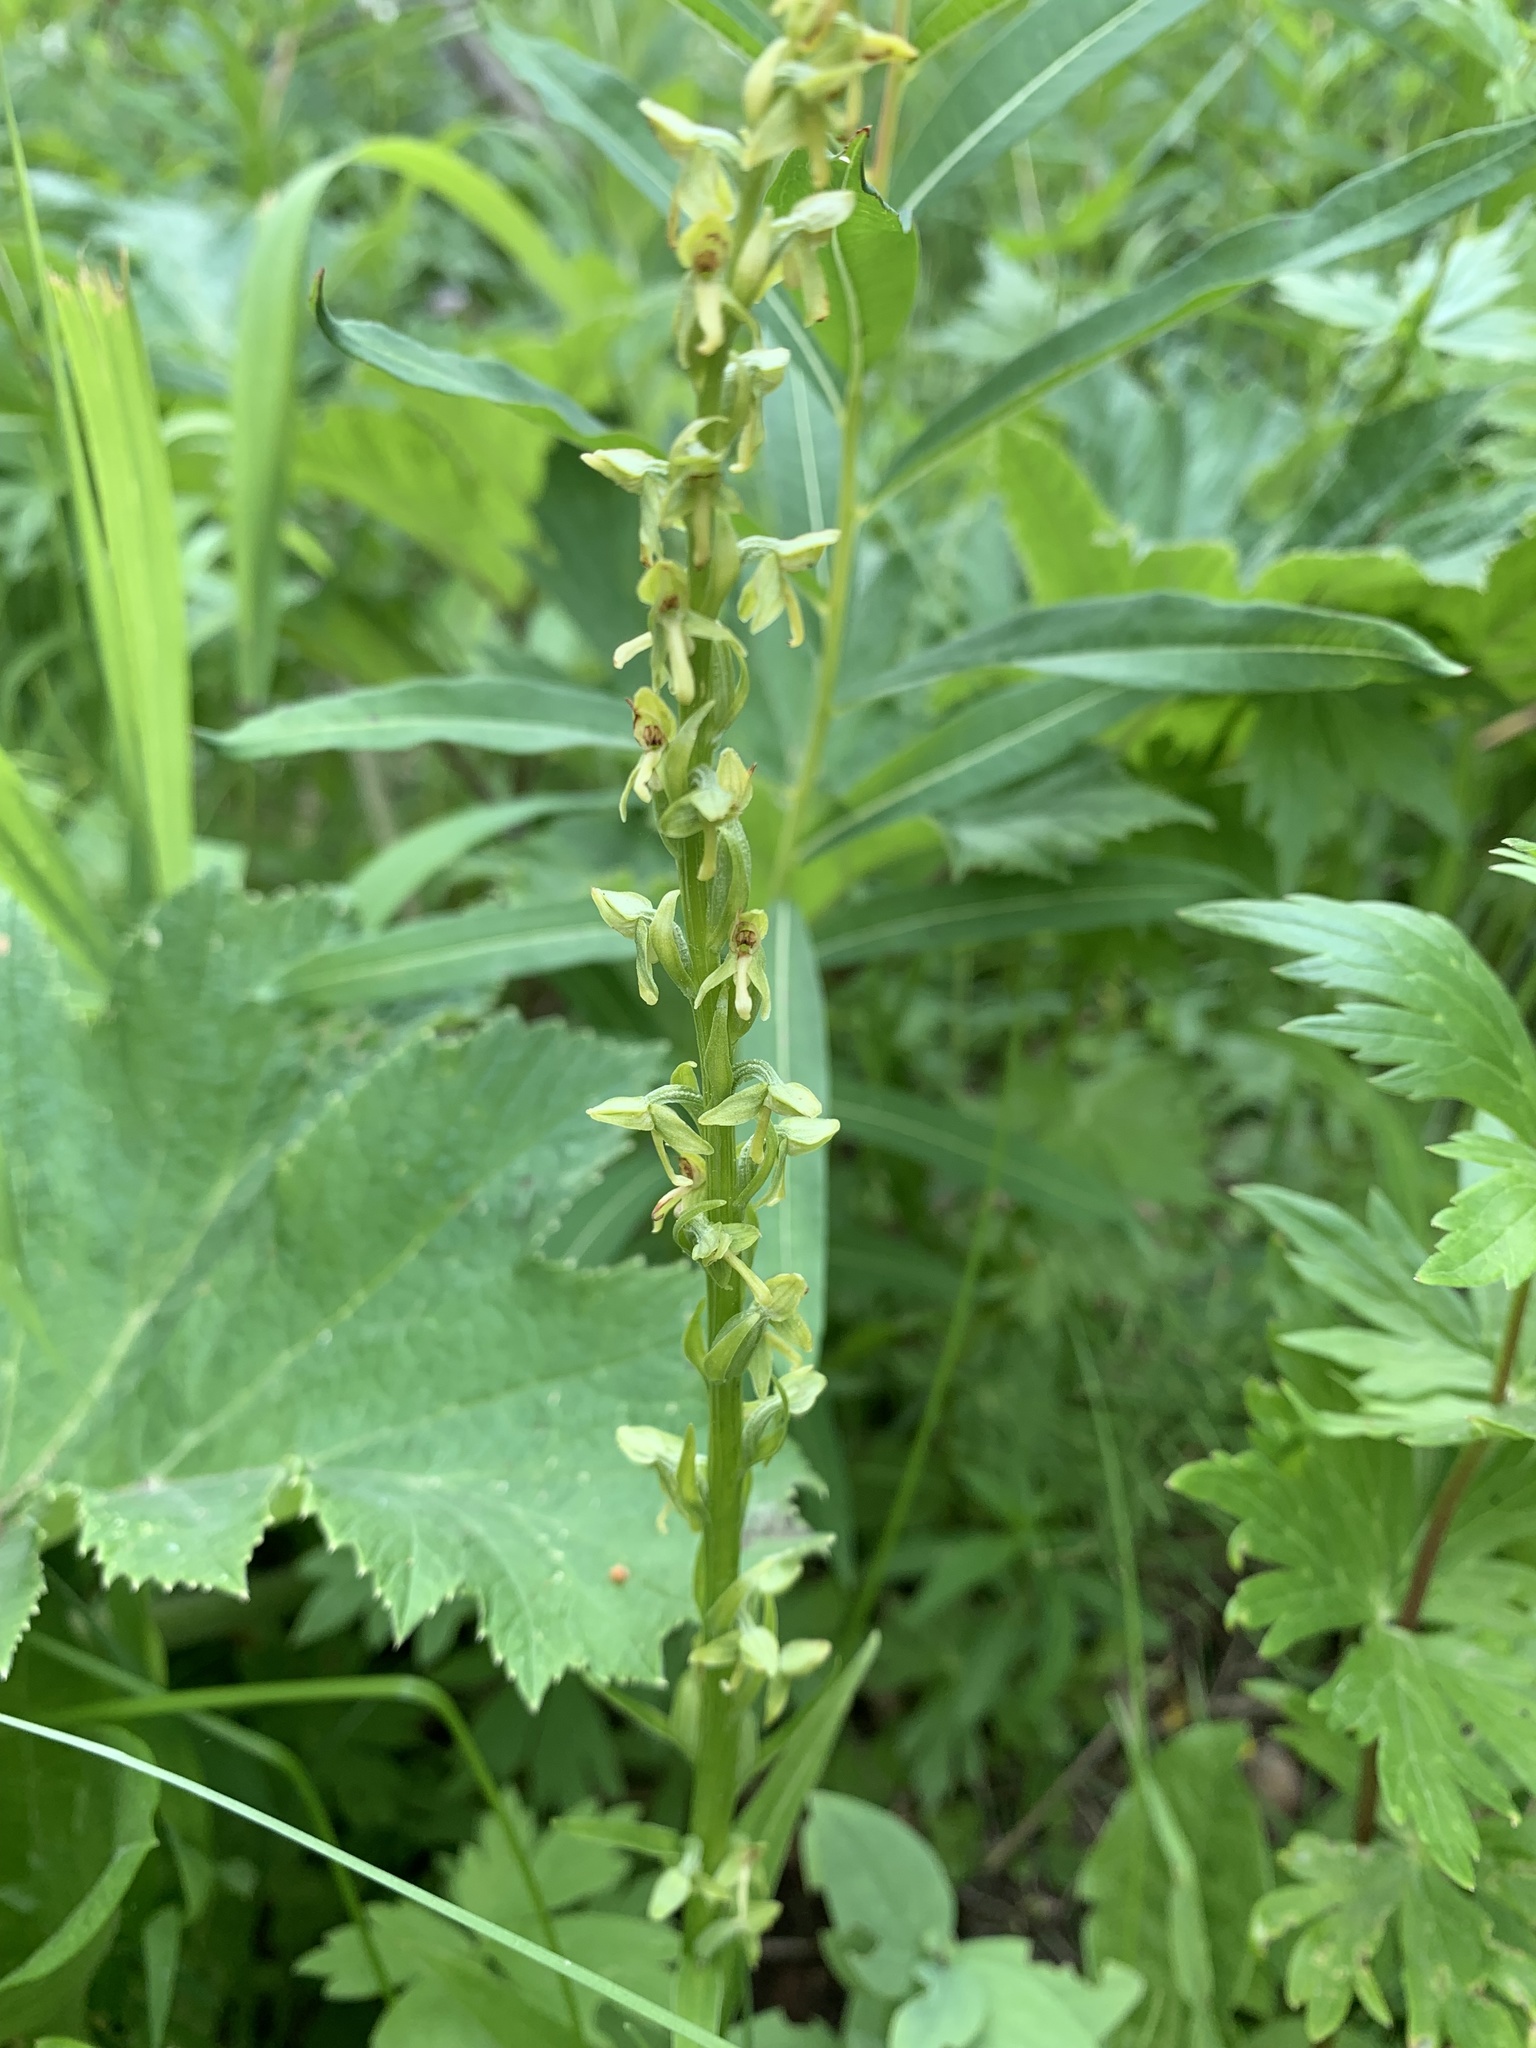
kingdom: Plantae
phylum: Tracheophyta
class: Liliopsida
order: Asparagales
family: Orchidaceae
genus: Platanthera
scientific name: Platanthera stricta
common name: Slender bog orchid
